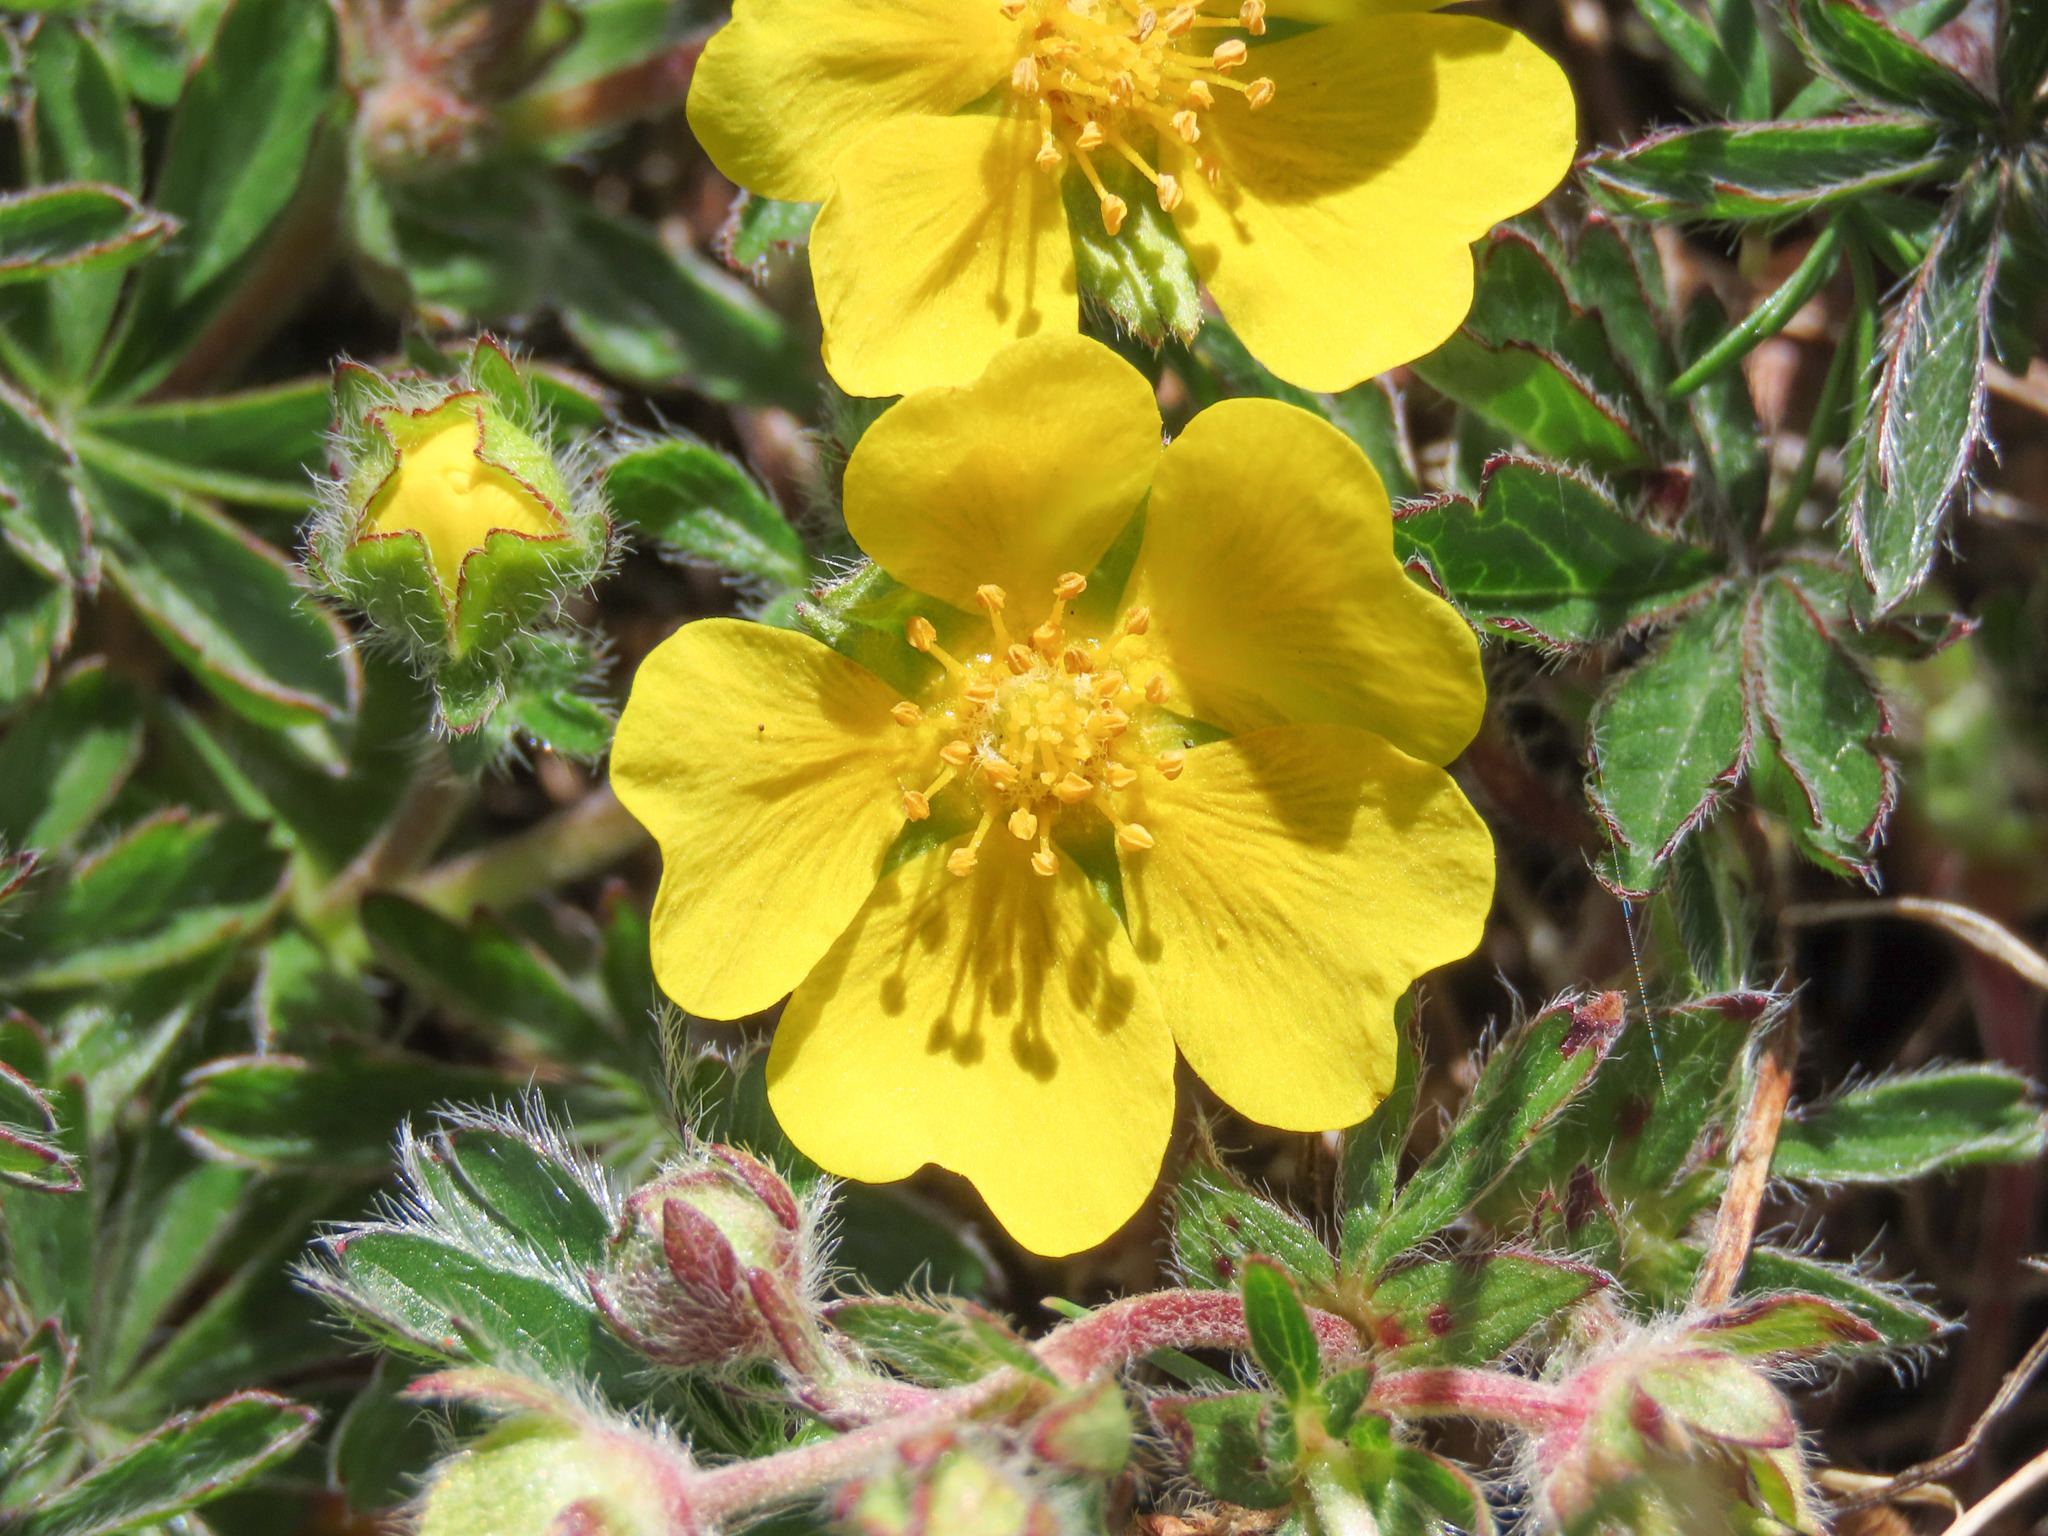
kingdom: Plantae
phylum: Tracheophyta
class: Magnoliopsida
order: Rosales
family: Rosaceae
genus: Potentilla
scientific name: Potentilla rigoana
